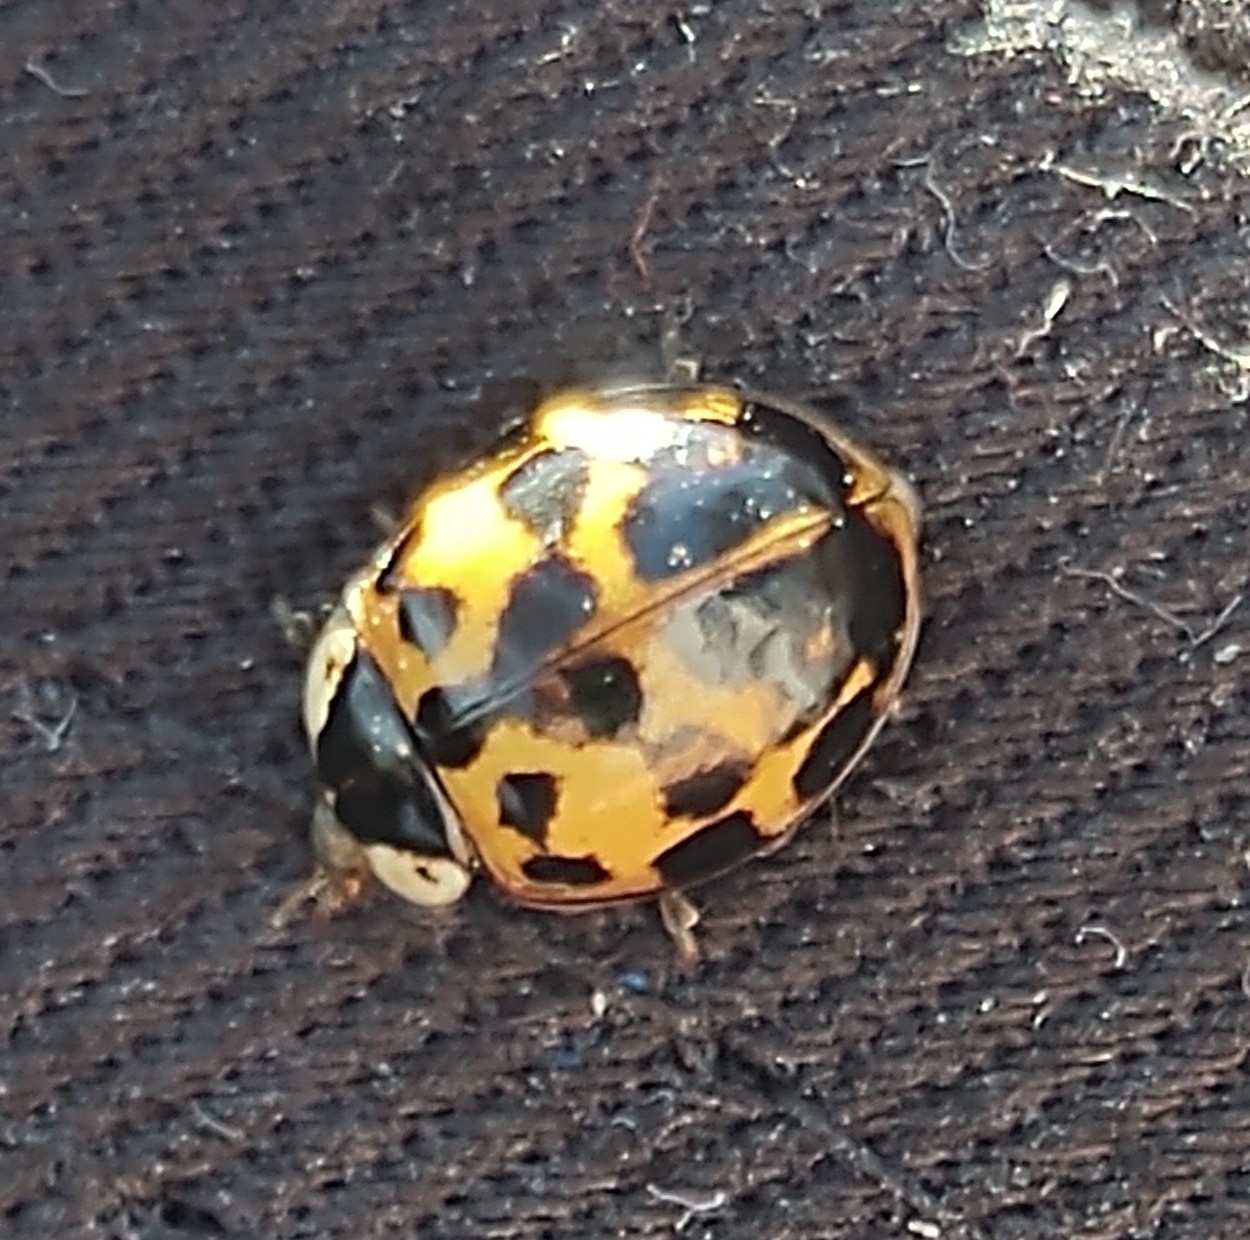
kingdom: Animalia
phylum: Arthropoda
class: Insecta
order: Coleoptera
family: Coccinellidae
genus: Harmonia
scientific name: Harmonia axyridis
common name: Harlequin ladybird
